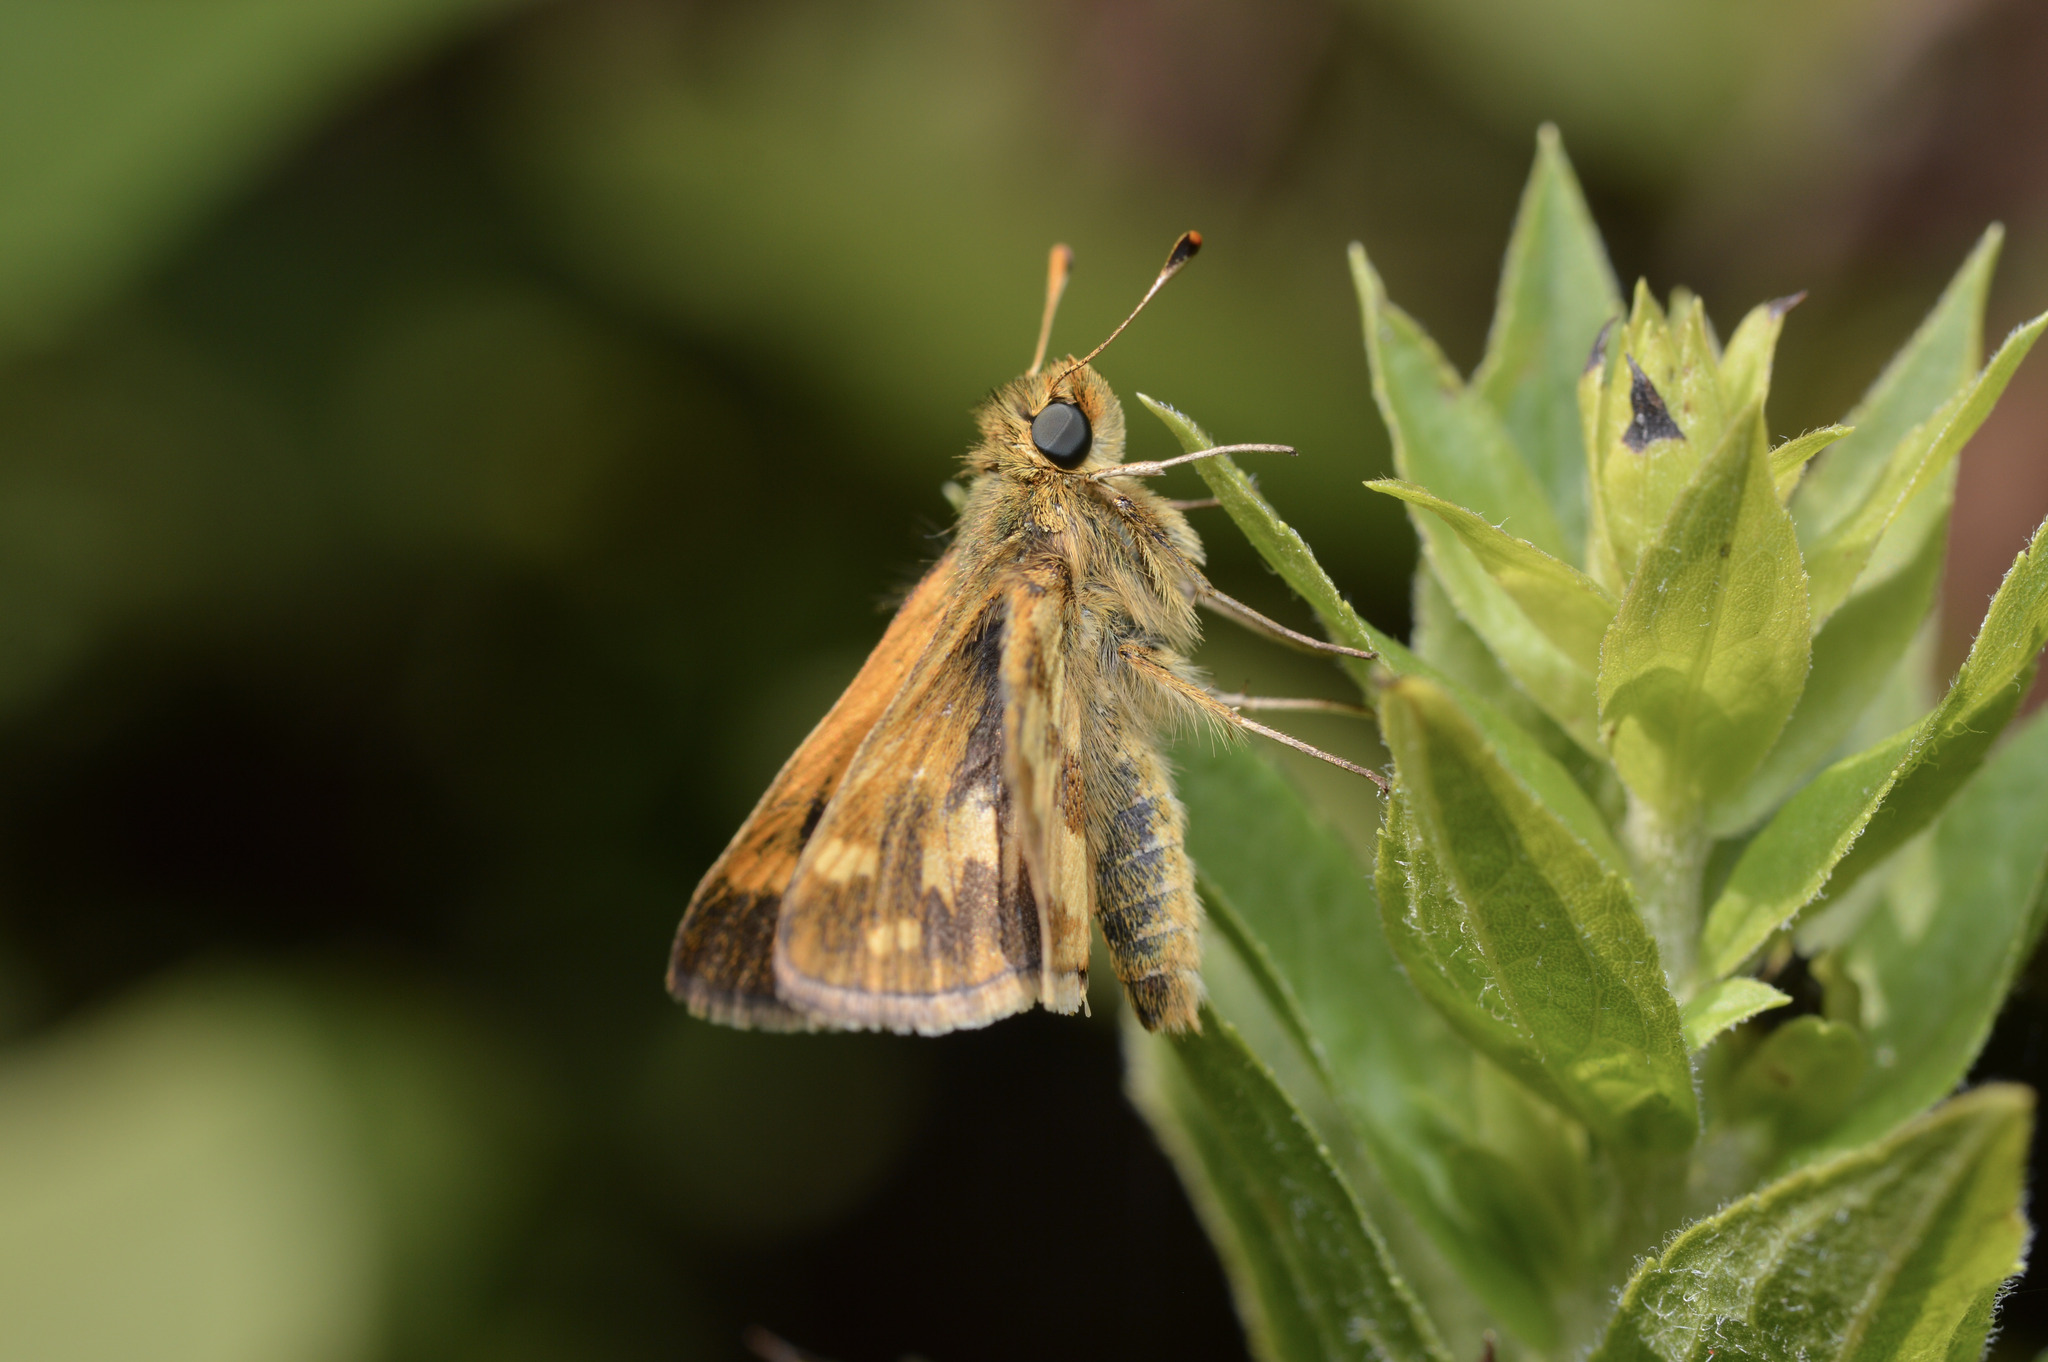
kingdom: Animalia
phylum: Arthropoda
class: Insecta
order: Lepidoptera
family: Hesperiidae
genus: Polites
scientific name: Polites coras
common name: Peck's skipper
